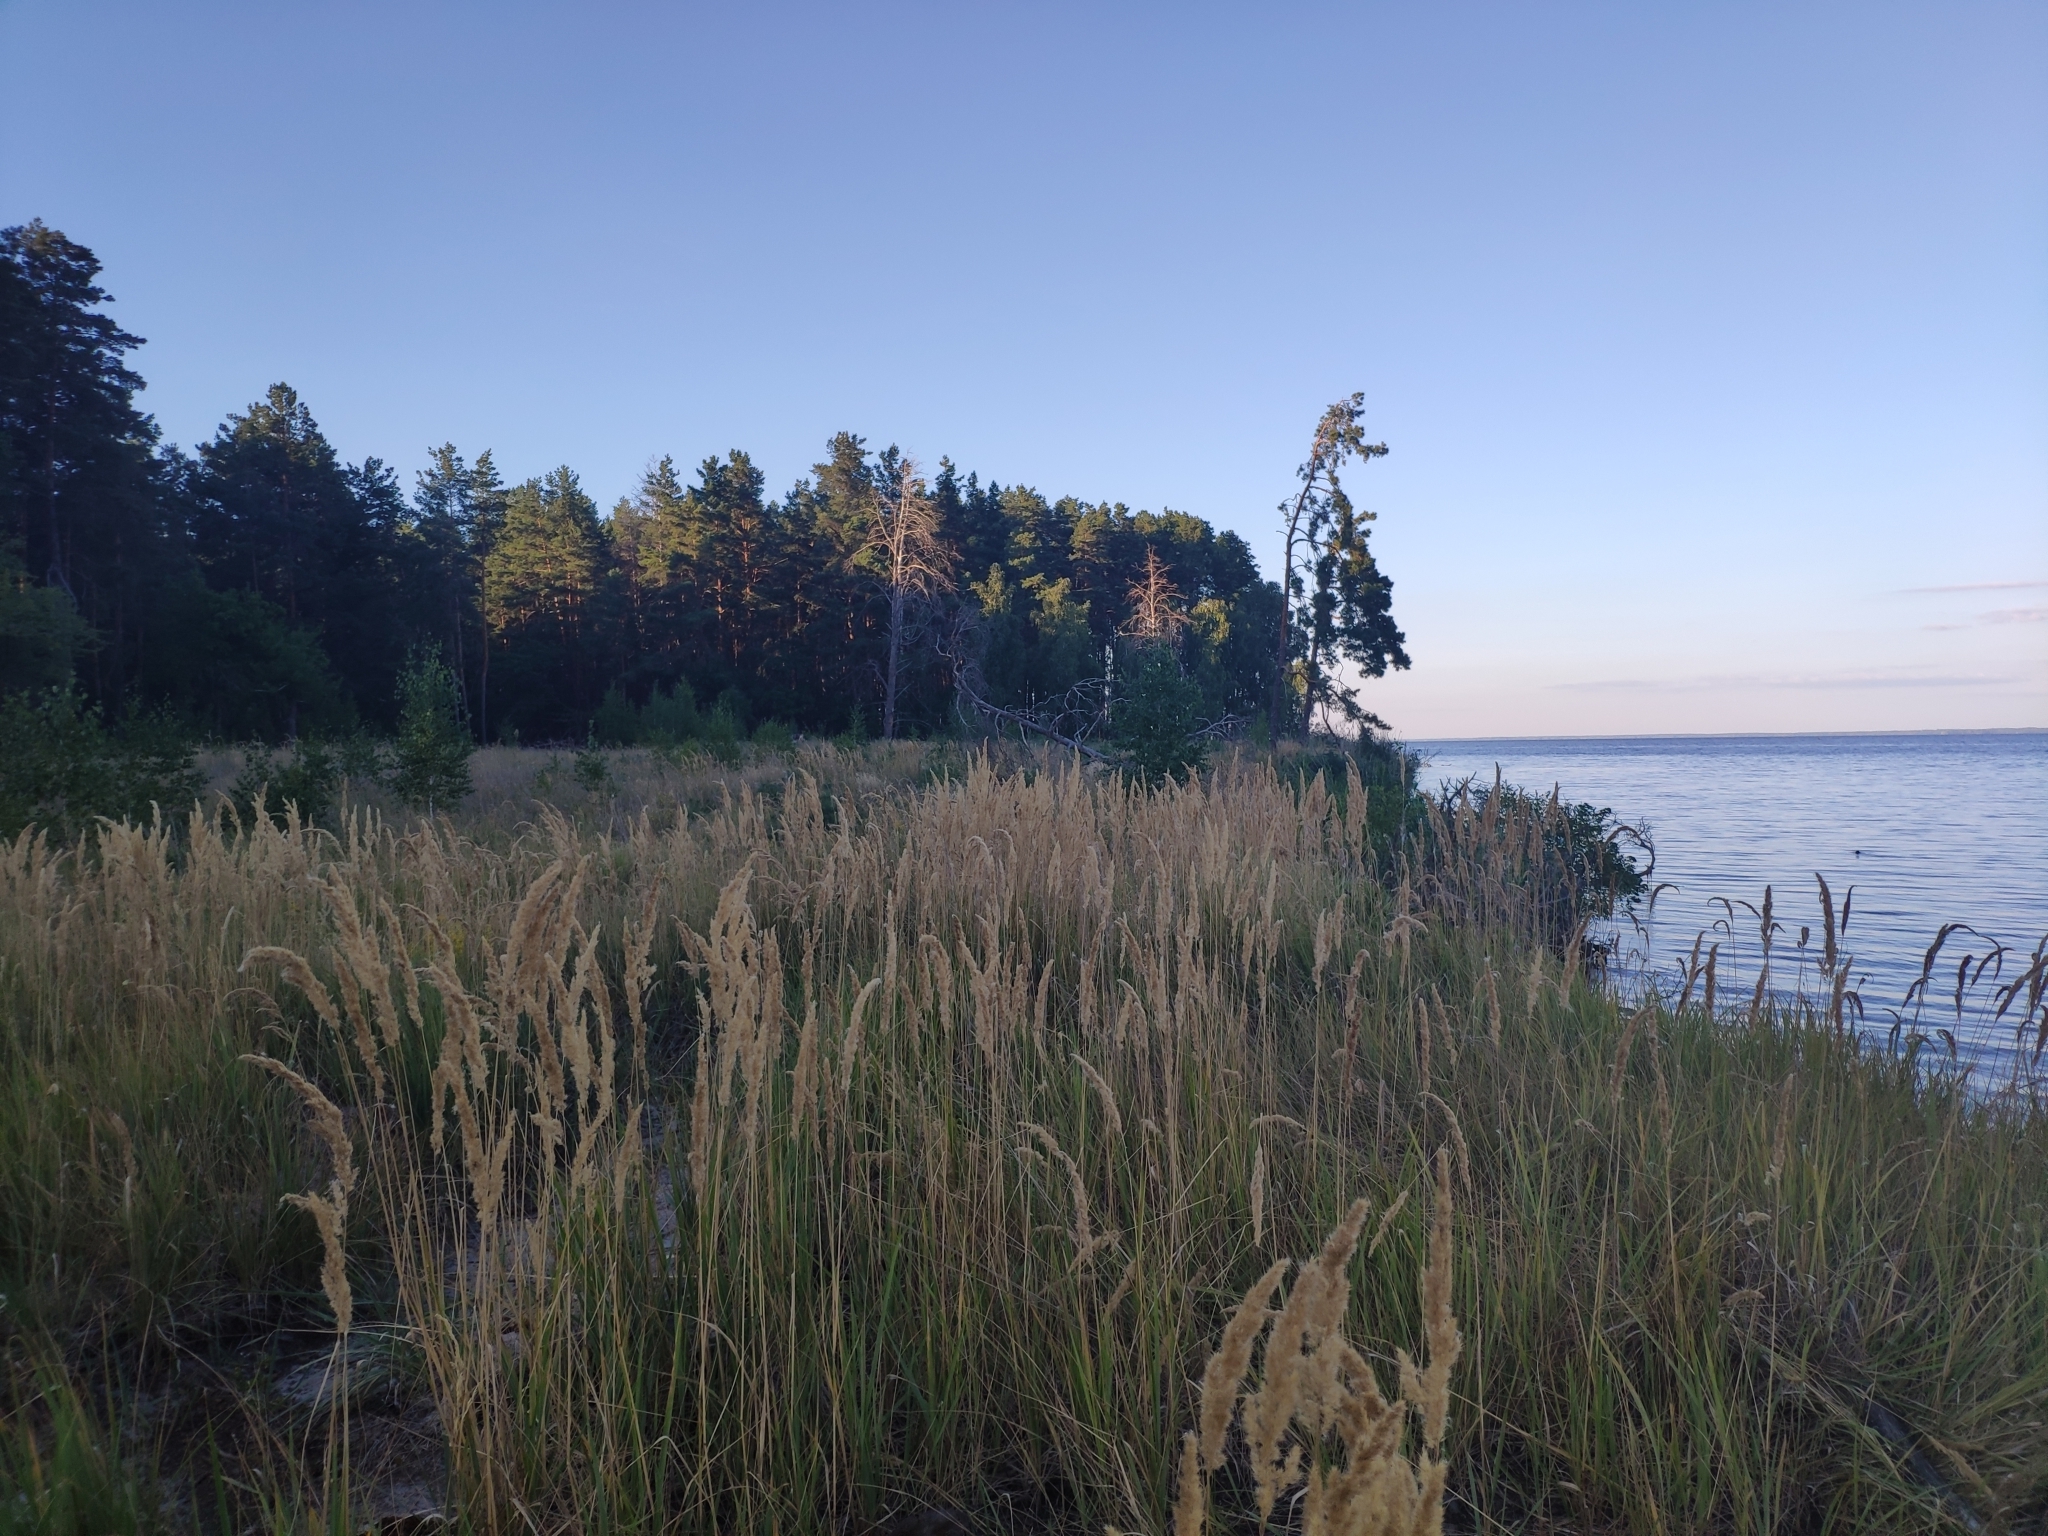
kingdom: Plantae
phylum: Tracheophyta
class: Liliopsida
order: Poales
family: Poaceae
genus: Calamagrostis
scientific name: Calamagrostis epigejos
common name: Wood small-reed
